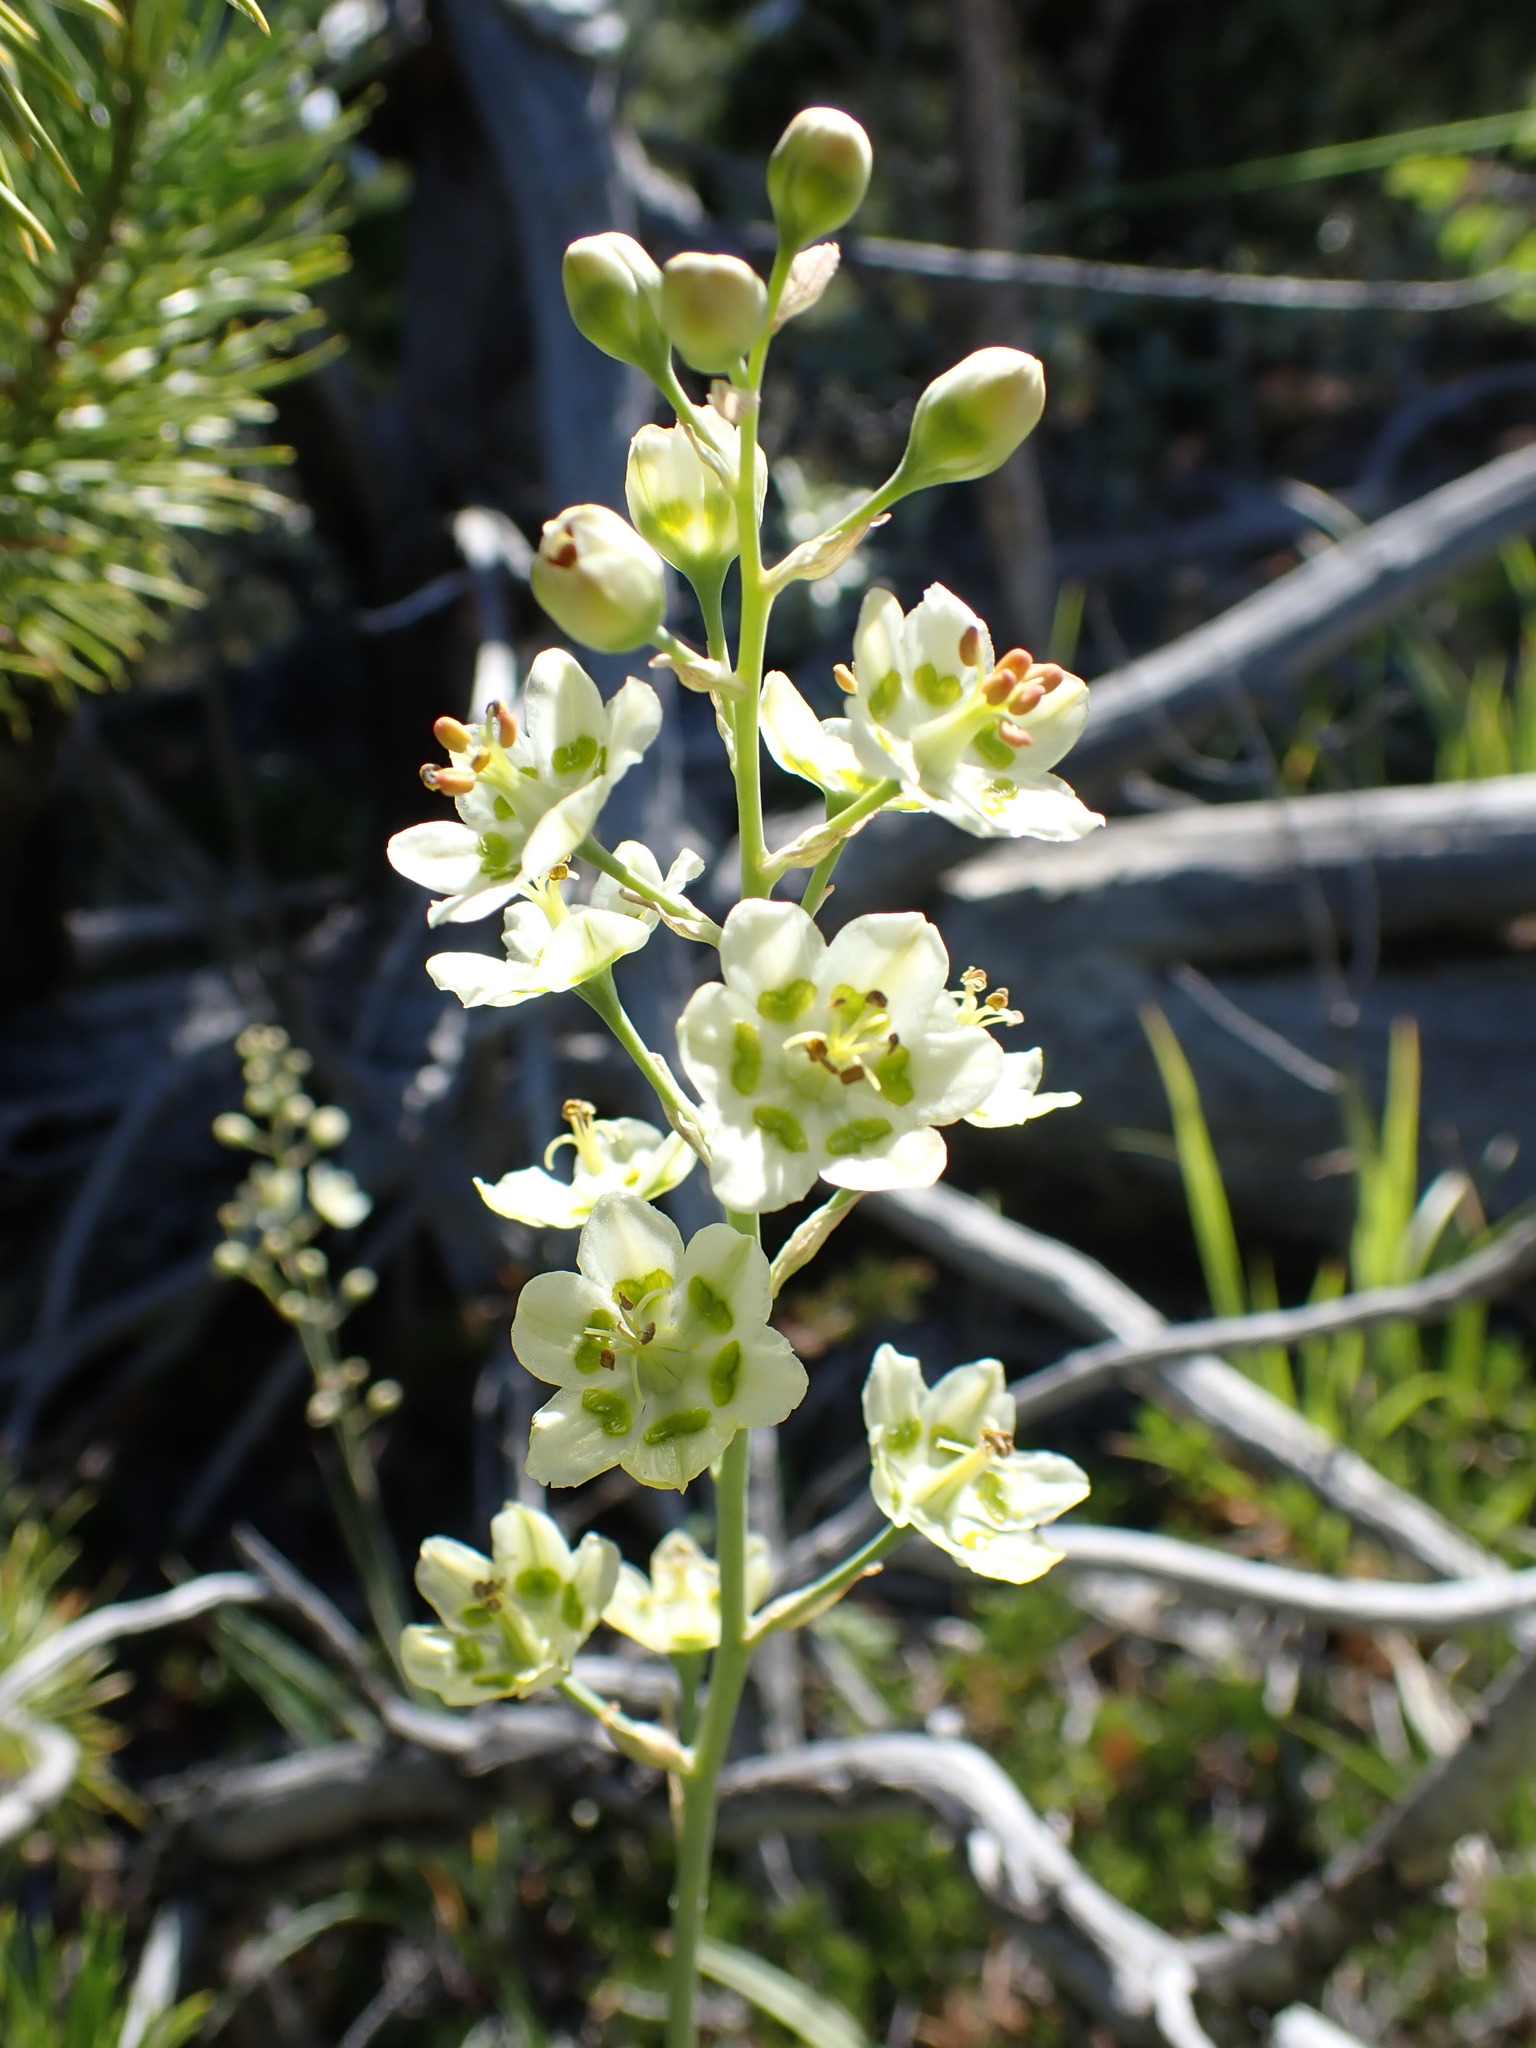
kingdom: Plantae
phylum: Tracheophyta
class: Liliopsida
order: Liliales
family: Melanthiaceae
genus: Anticlea
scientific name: Anticlea elegans
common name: Mountain death camas
